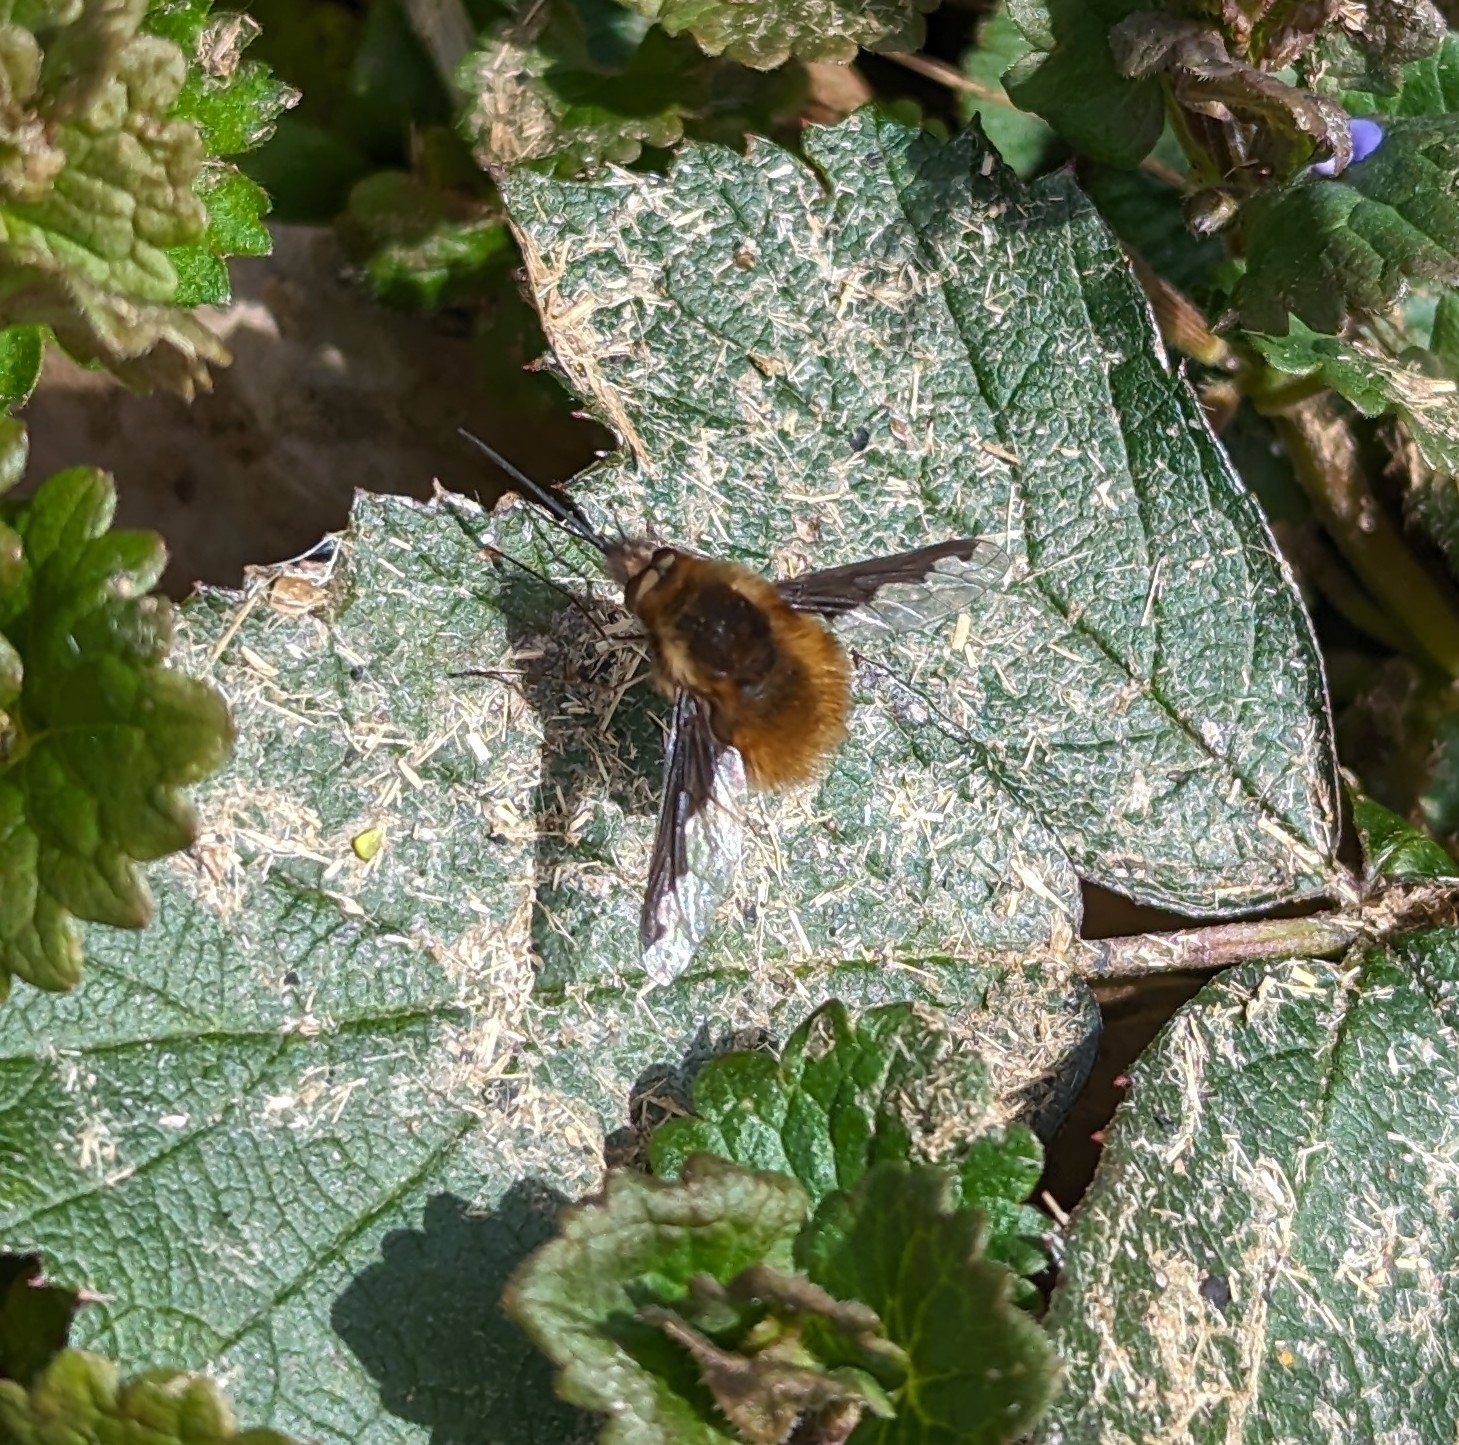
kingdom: Animalia
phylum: Arthropoda
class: Insecta
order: Diptera
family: Bombyliidae
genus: Bombylius
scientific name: Bombylius major
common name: Bee fly
